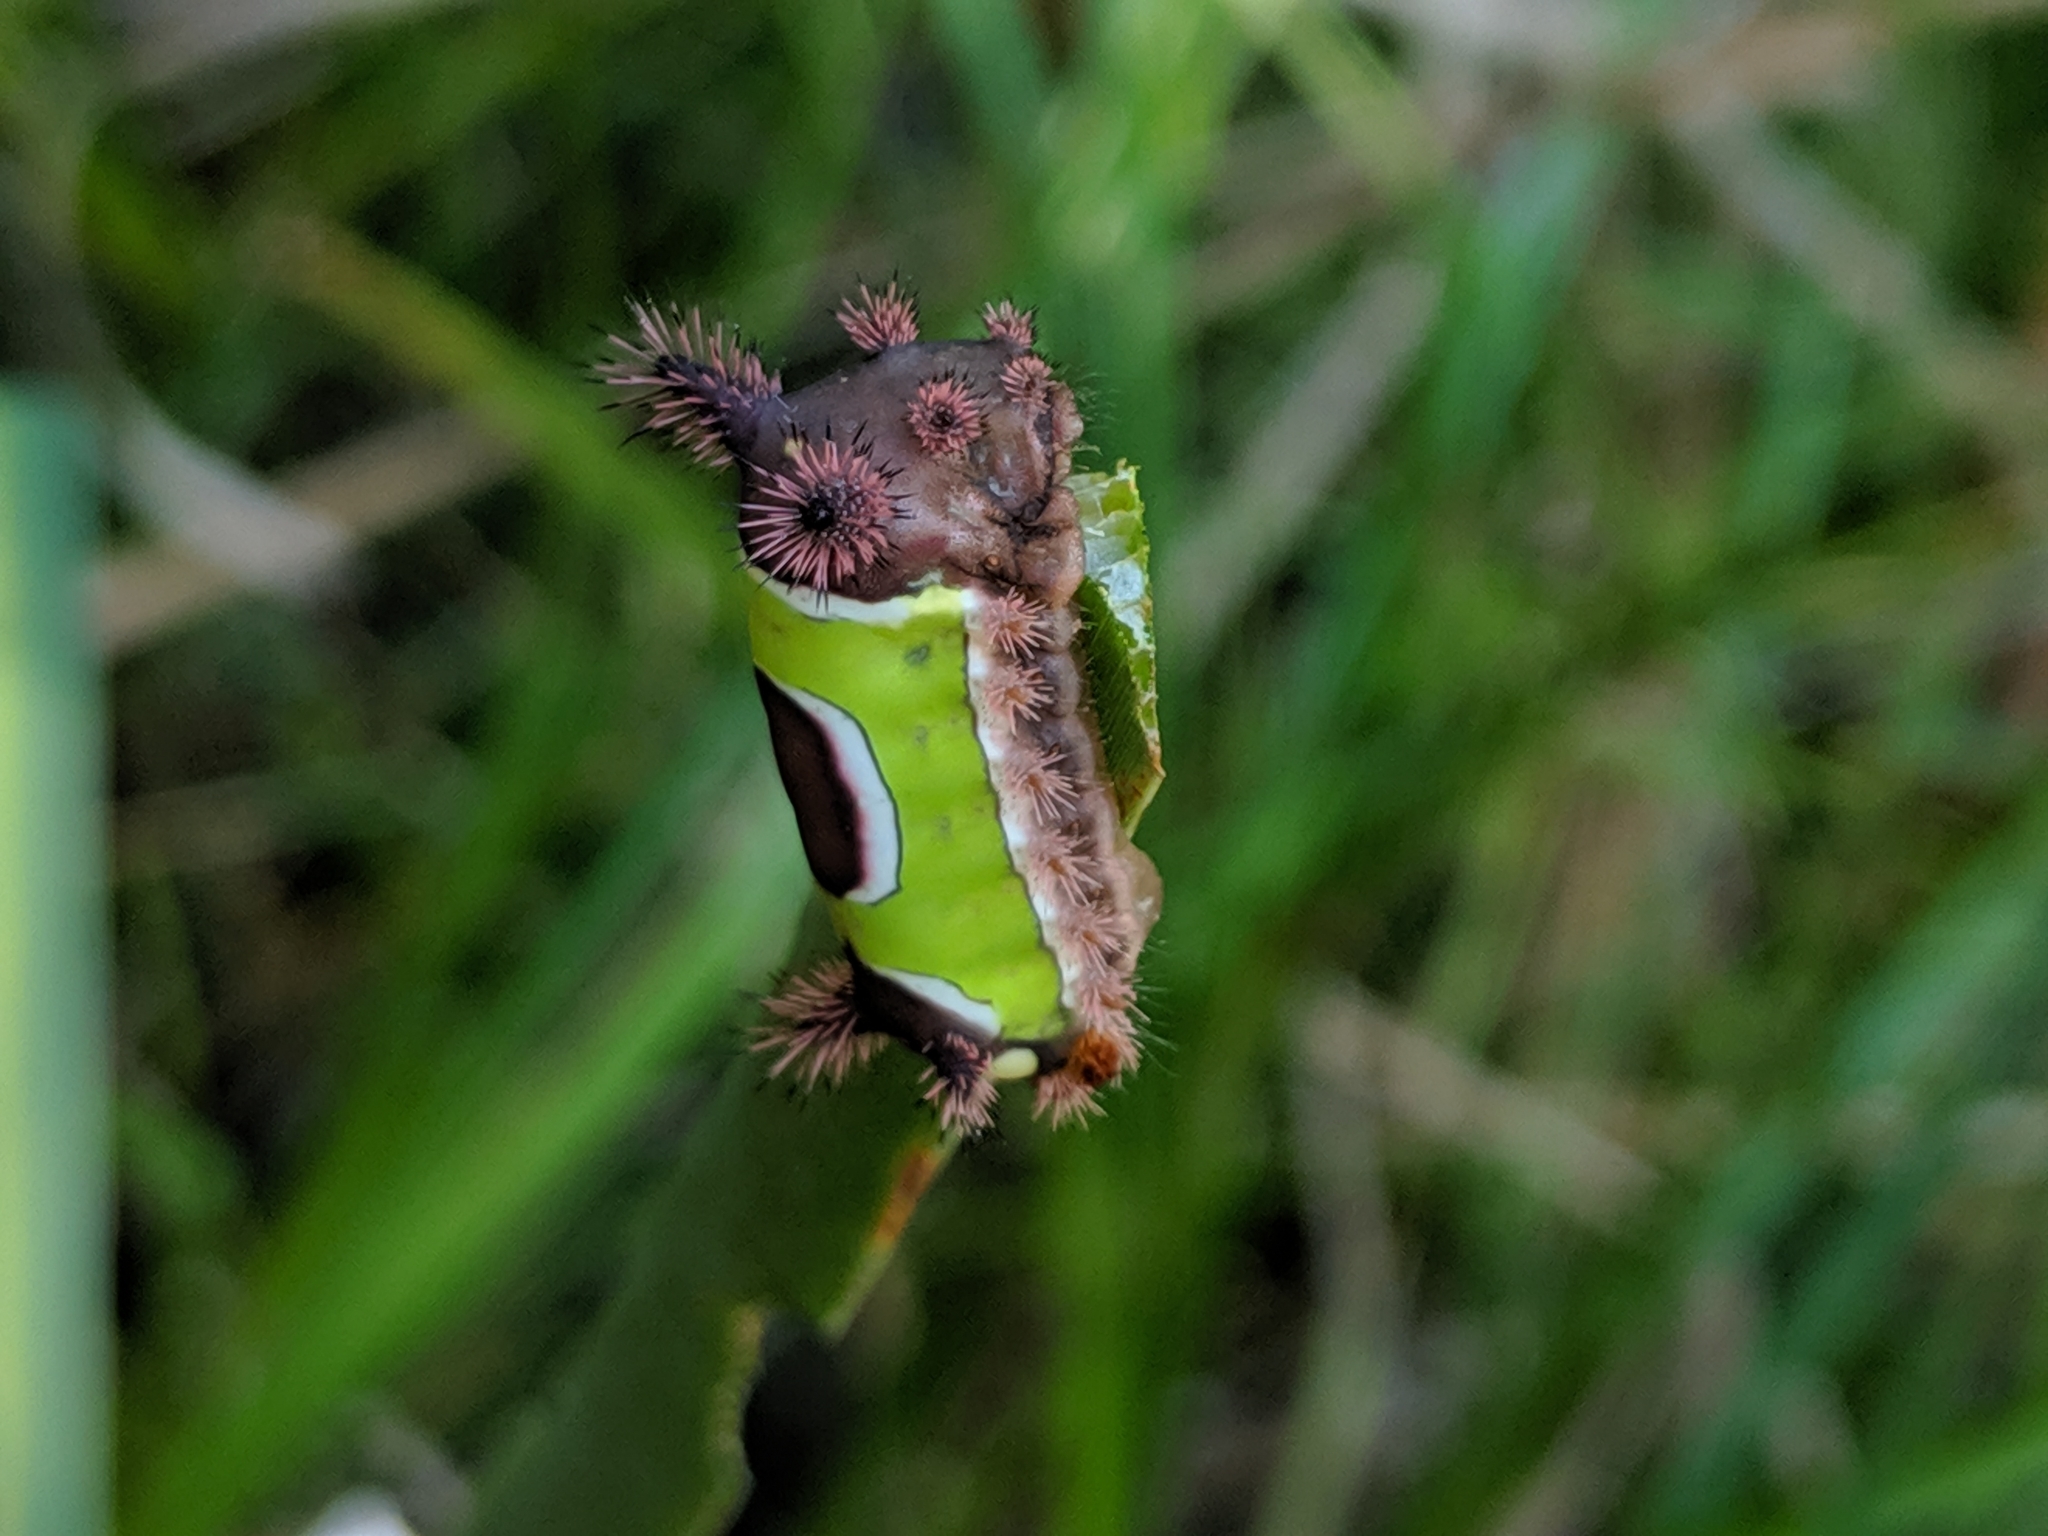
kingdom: Animalia
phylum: Arthropoda
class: Insecta
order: Lepidoptera
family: Limacodidae
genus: Acharia
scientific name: Acharia stimulea
